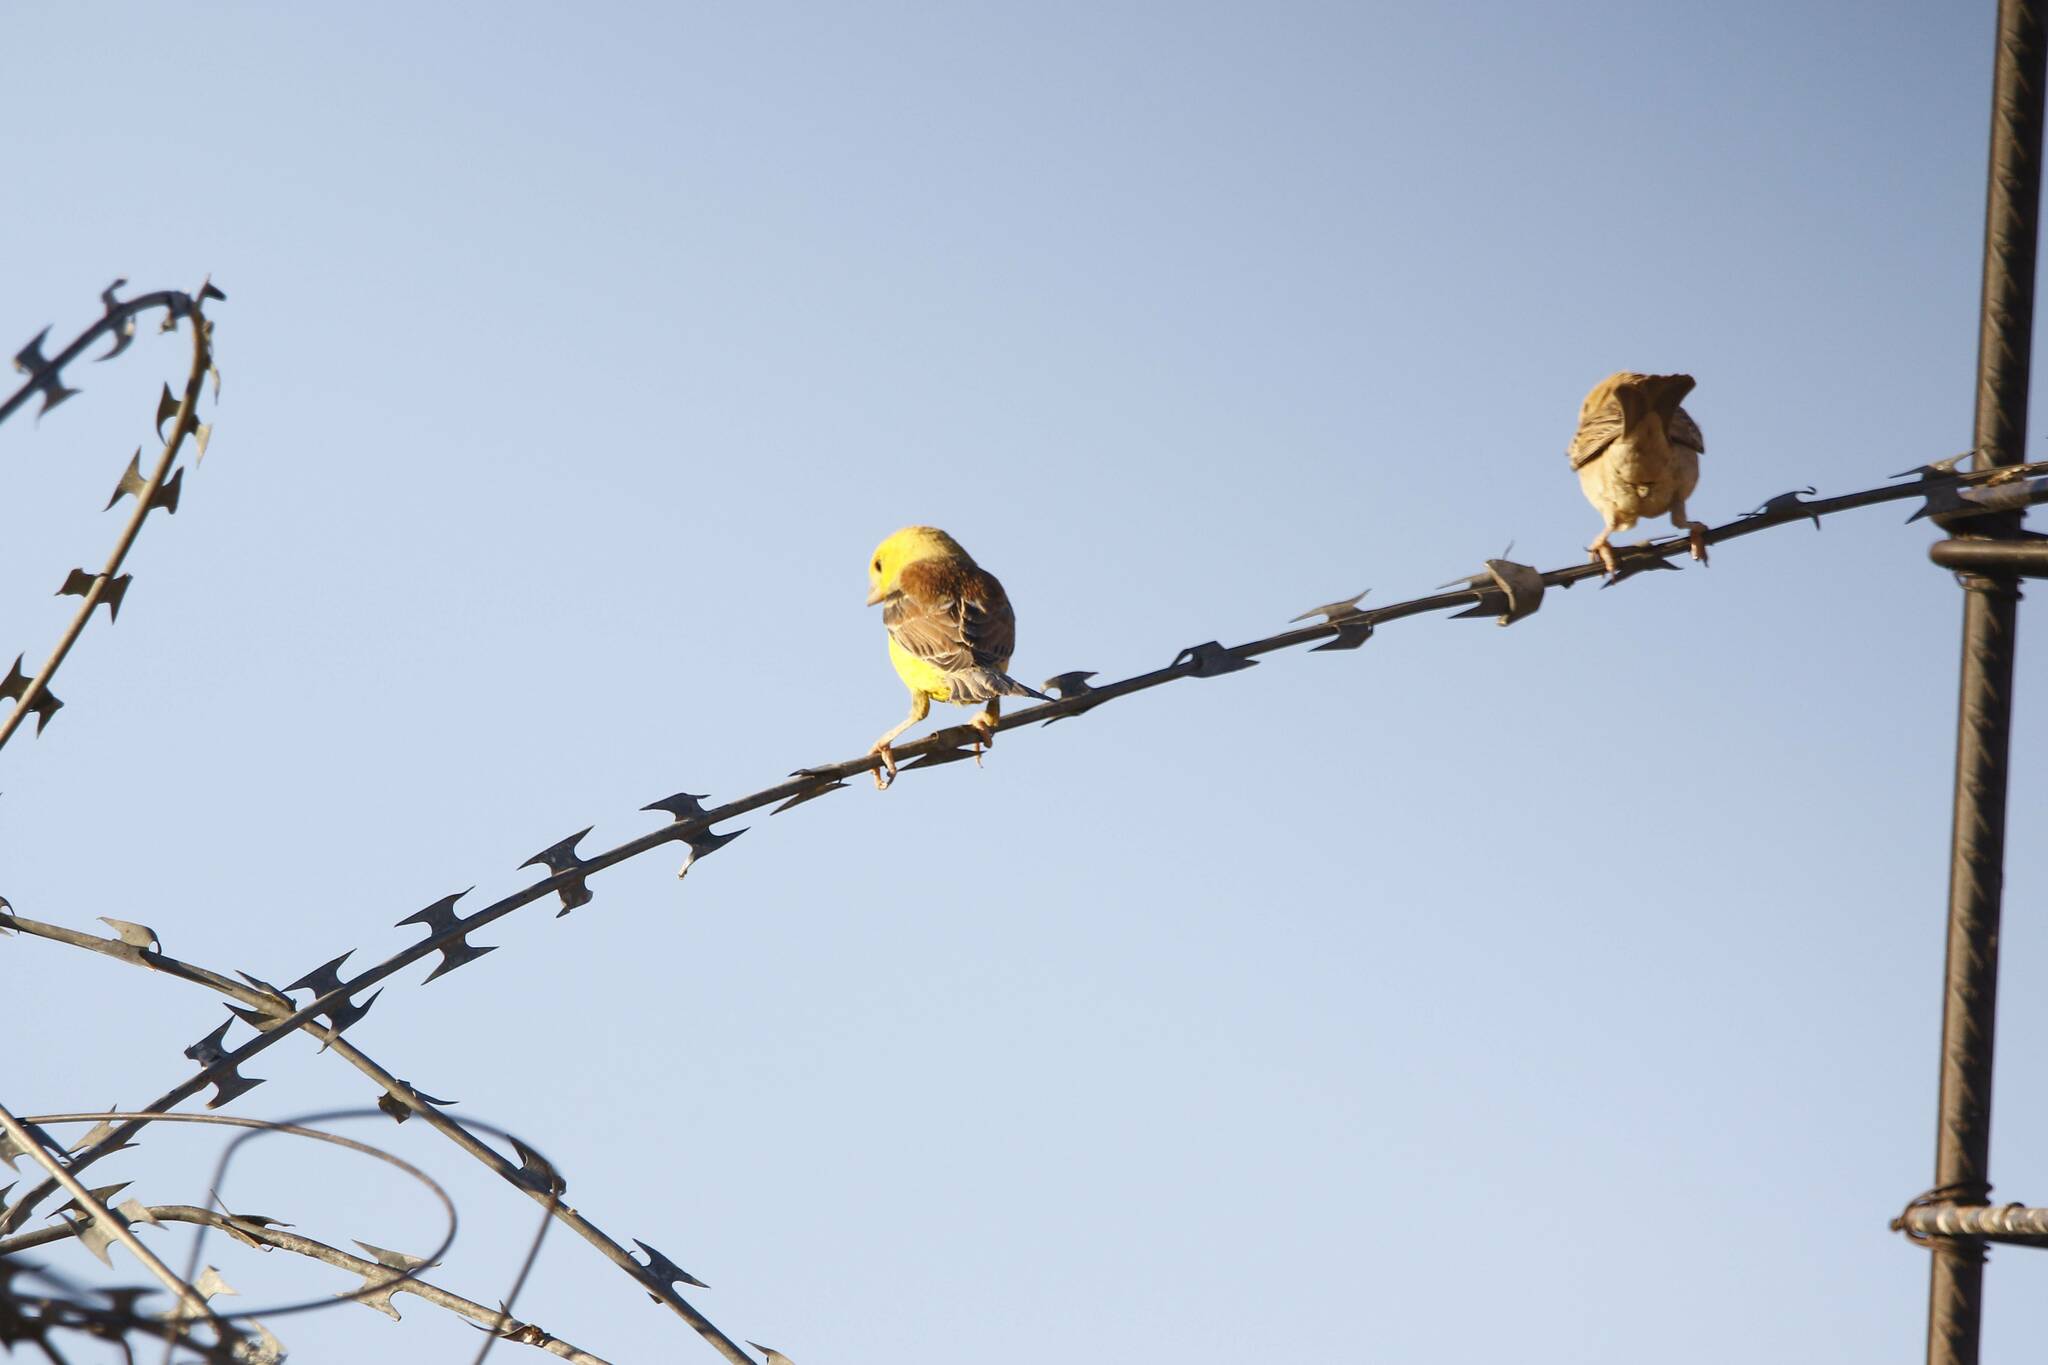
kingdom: Animalia
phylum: Chordata
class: Aves
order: Passeriformes
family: Passeridae
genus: Passer
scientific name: Passer luteus
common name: Sudan golden sparrow
